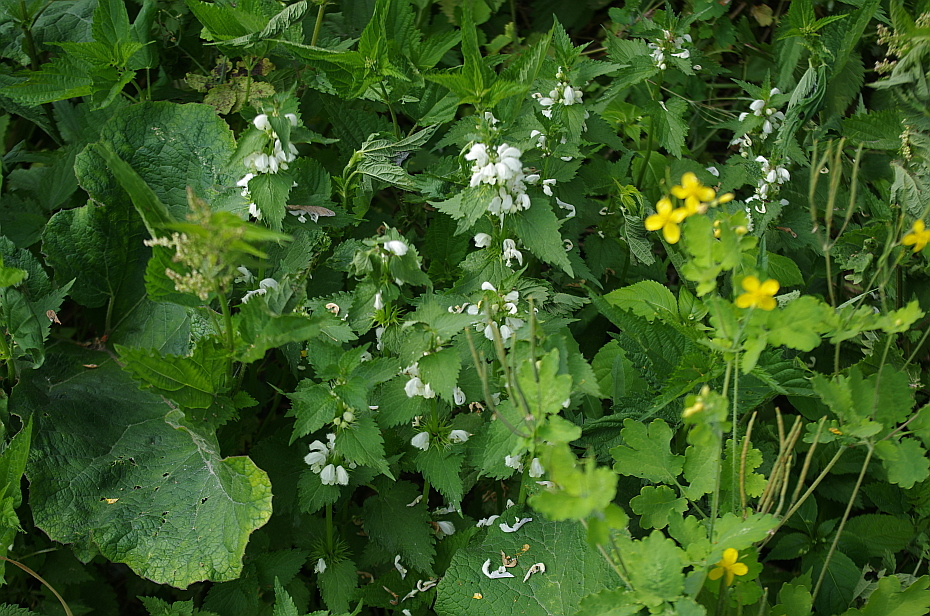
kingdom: Plantae
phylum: Tracheophyta
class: Magnoliopsida
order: Lamiales
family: Lamiaceae
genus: Lamium
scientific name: Lamium album
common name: White dead-nettle
